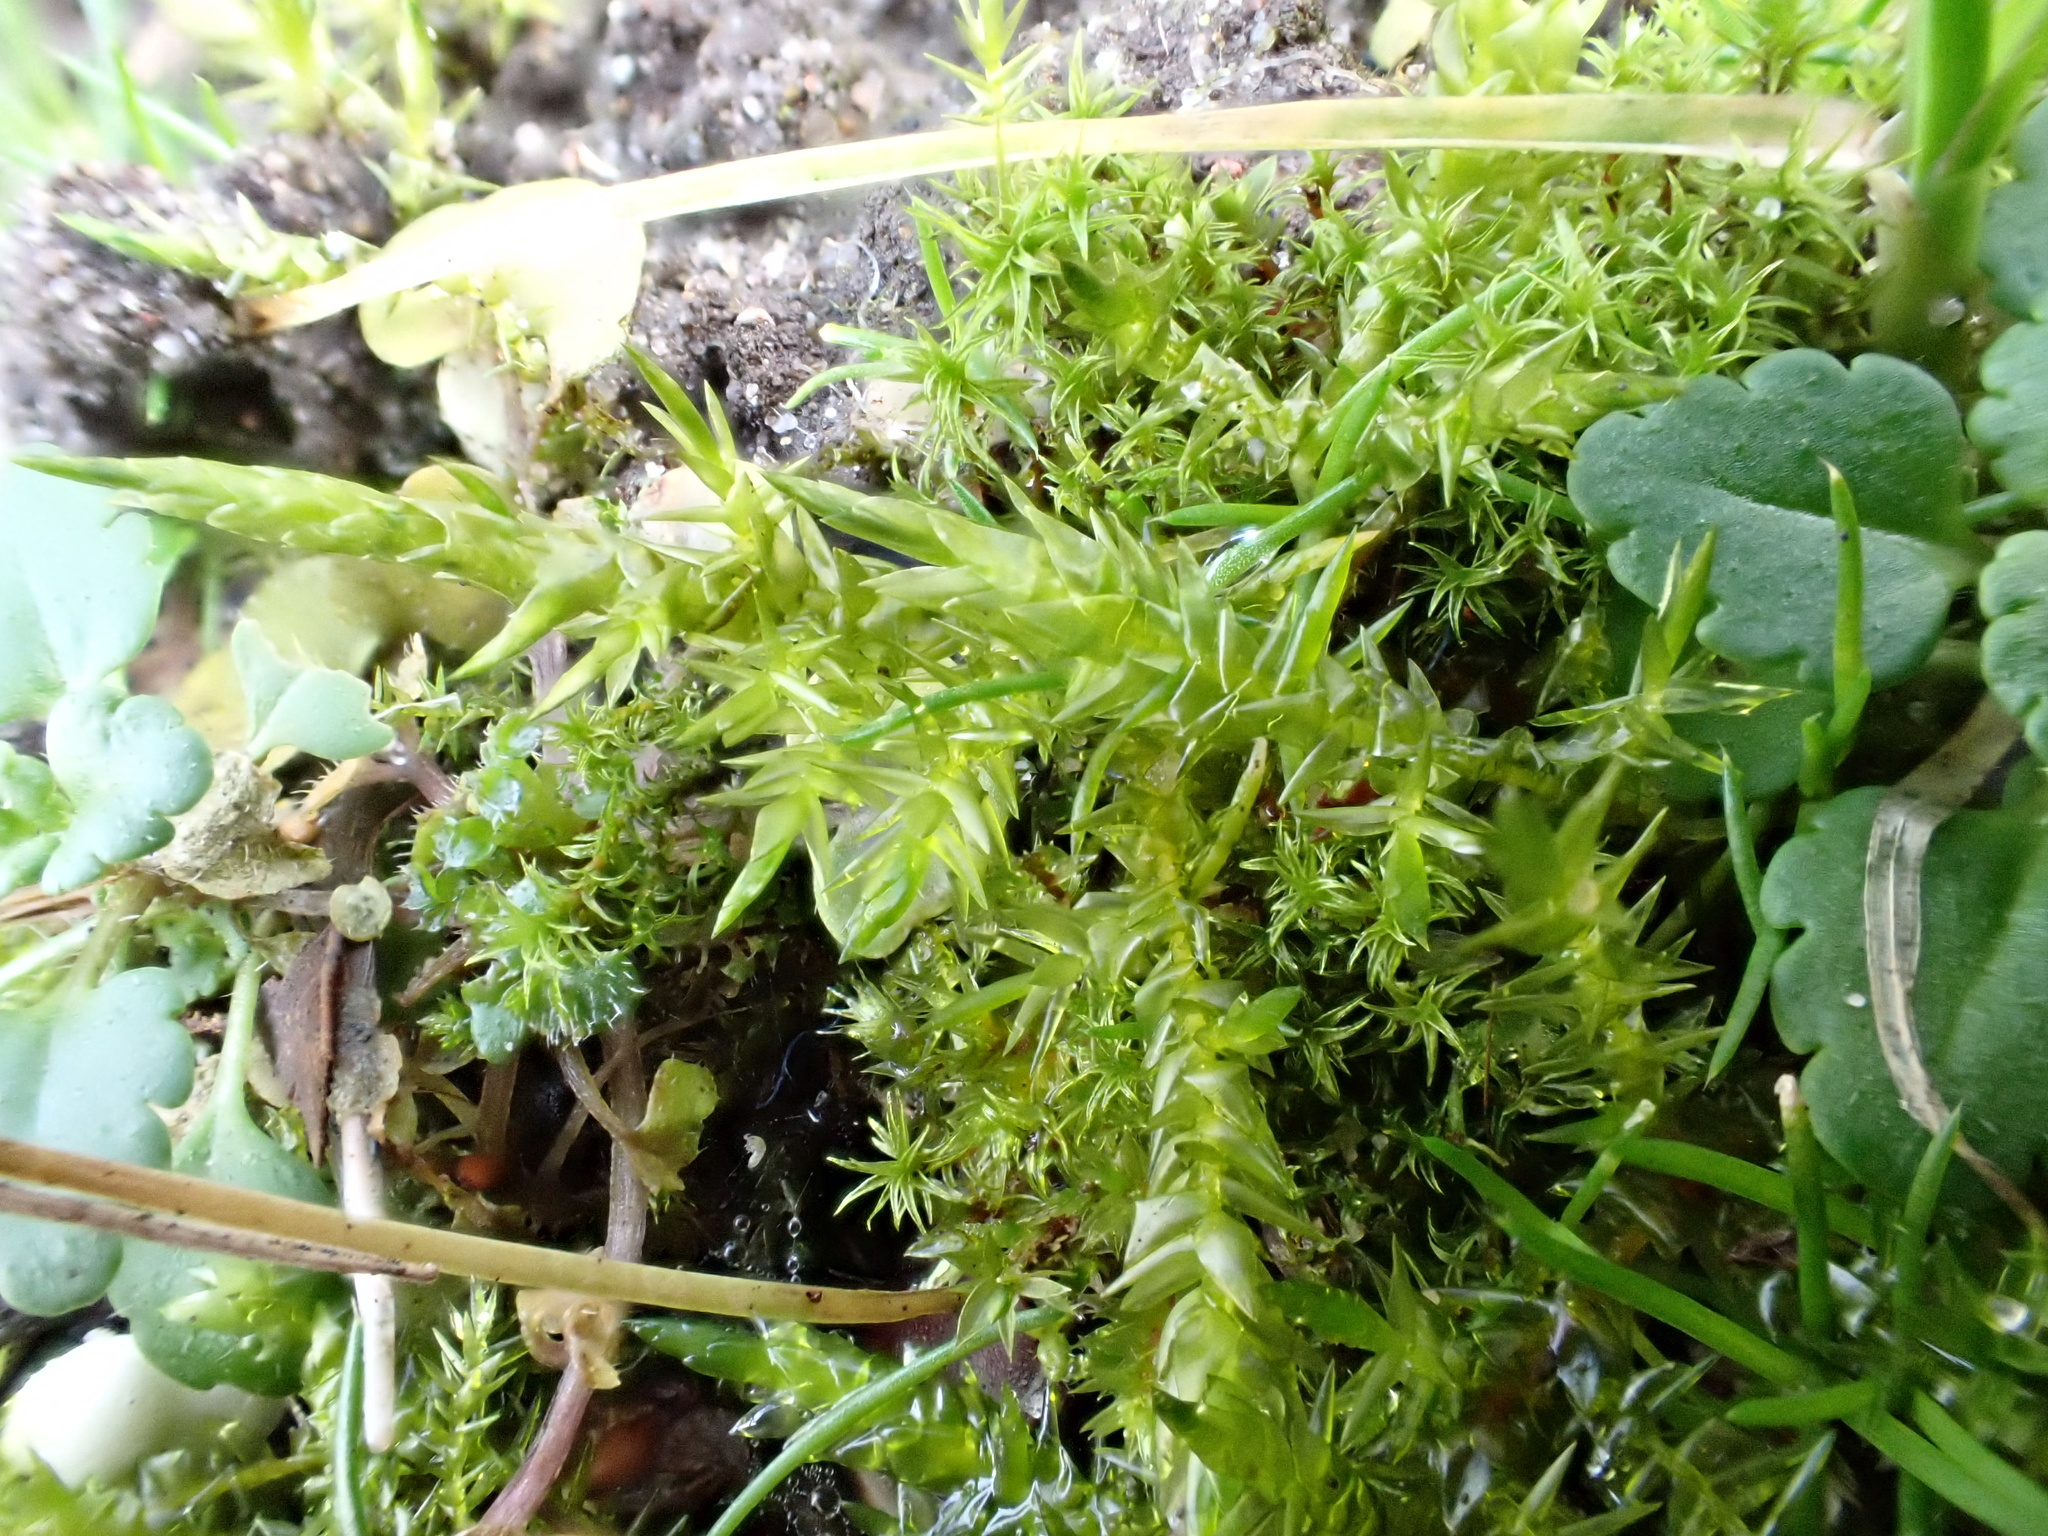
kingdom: Plantae
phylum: Bryophyta
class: Bryopsida
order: Hypnales
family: Pylaisiaceae
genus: Calliergonella
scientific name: Calliergonella cuspidata
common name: Common large wetland moss
